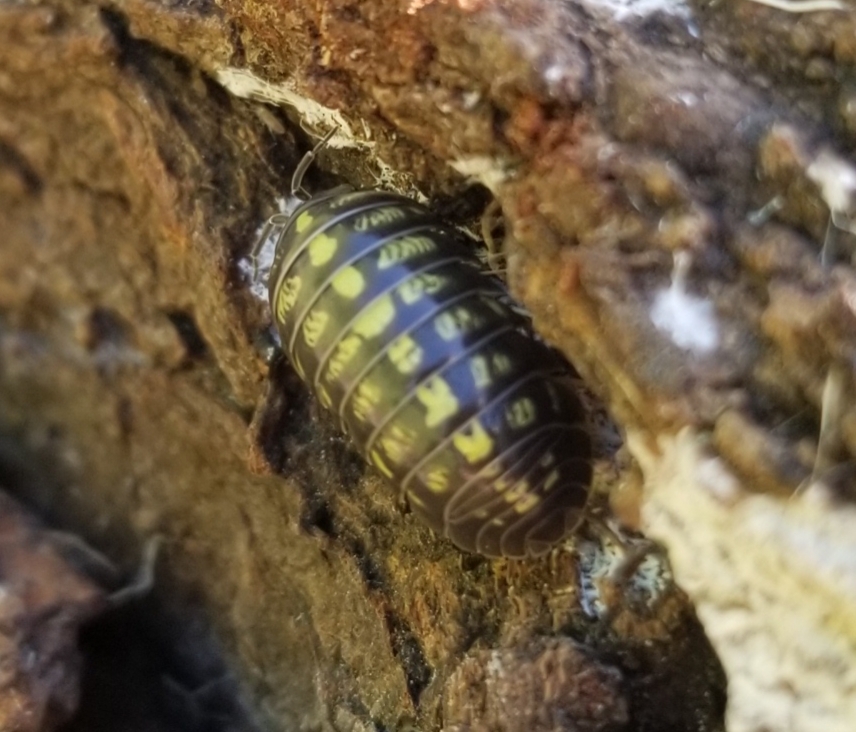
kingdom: Animalia
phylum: Arthropoda
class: Malacostraca
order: Isopoda
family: Armadillidiidae
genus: Armadillidium
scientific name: Armadillidium vulgare
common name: Common pill woodlouse
